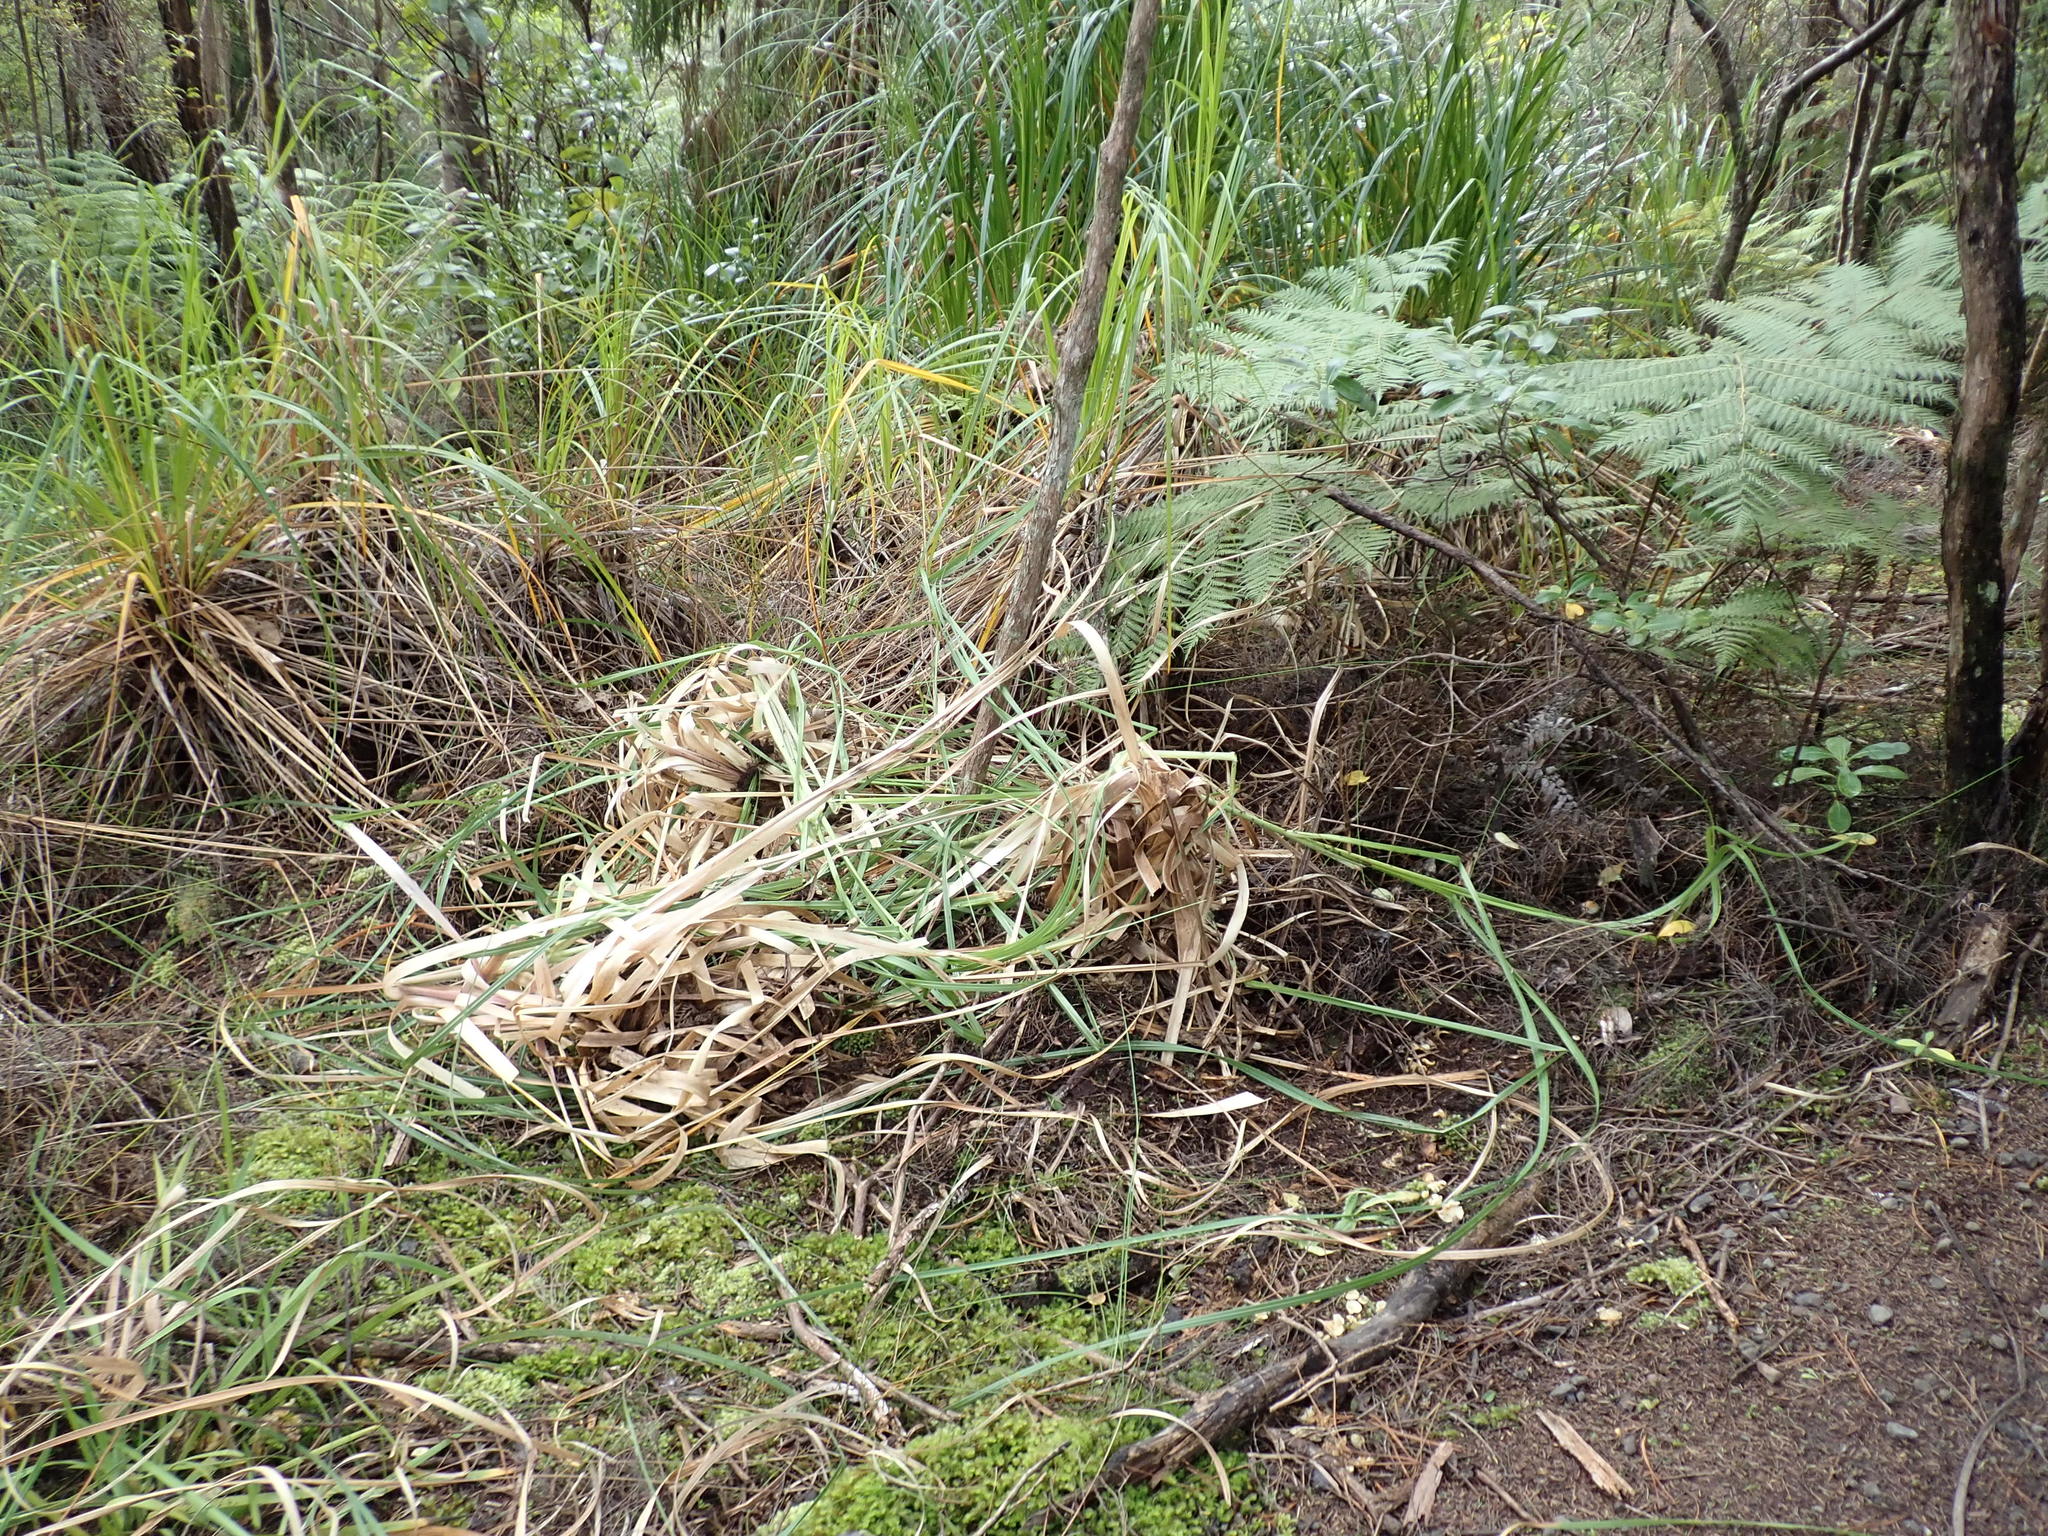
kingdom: Plantae
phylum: Tracheophyta
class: Liliopsida
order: Poales
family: Poaceae
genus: Cortaderia
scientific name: Cortaderia selloana
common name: Uruguayan pampas grass
